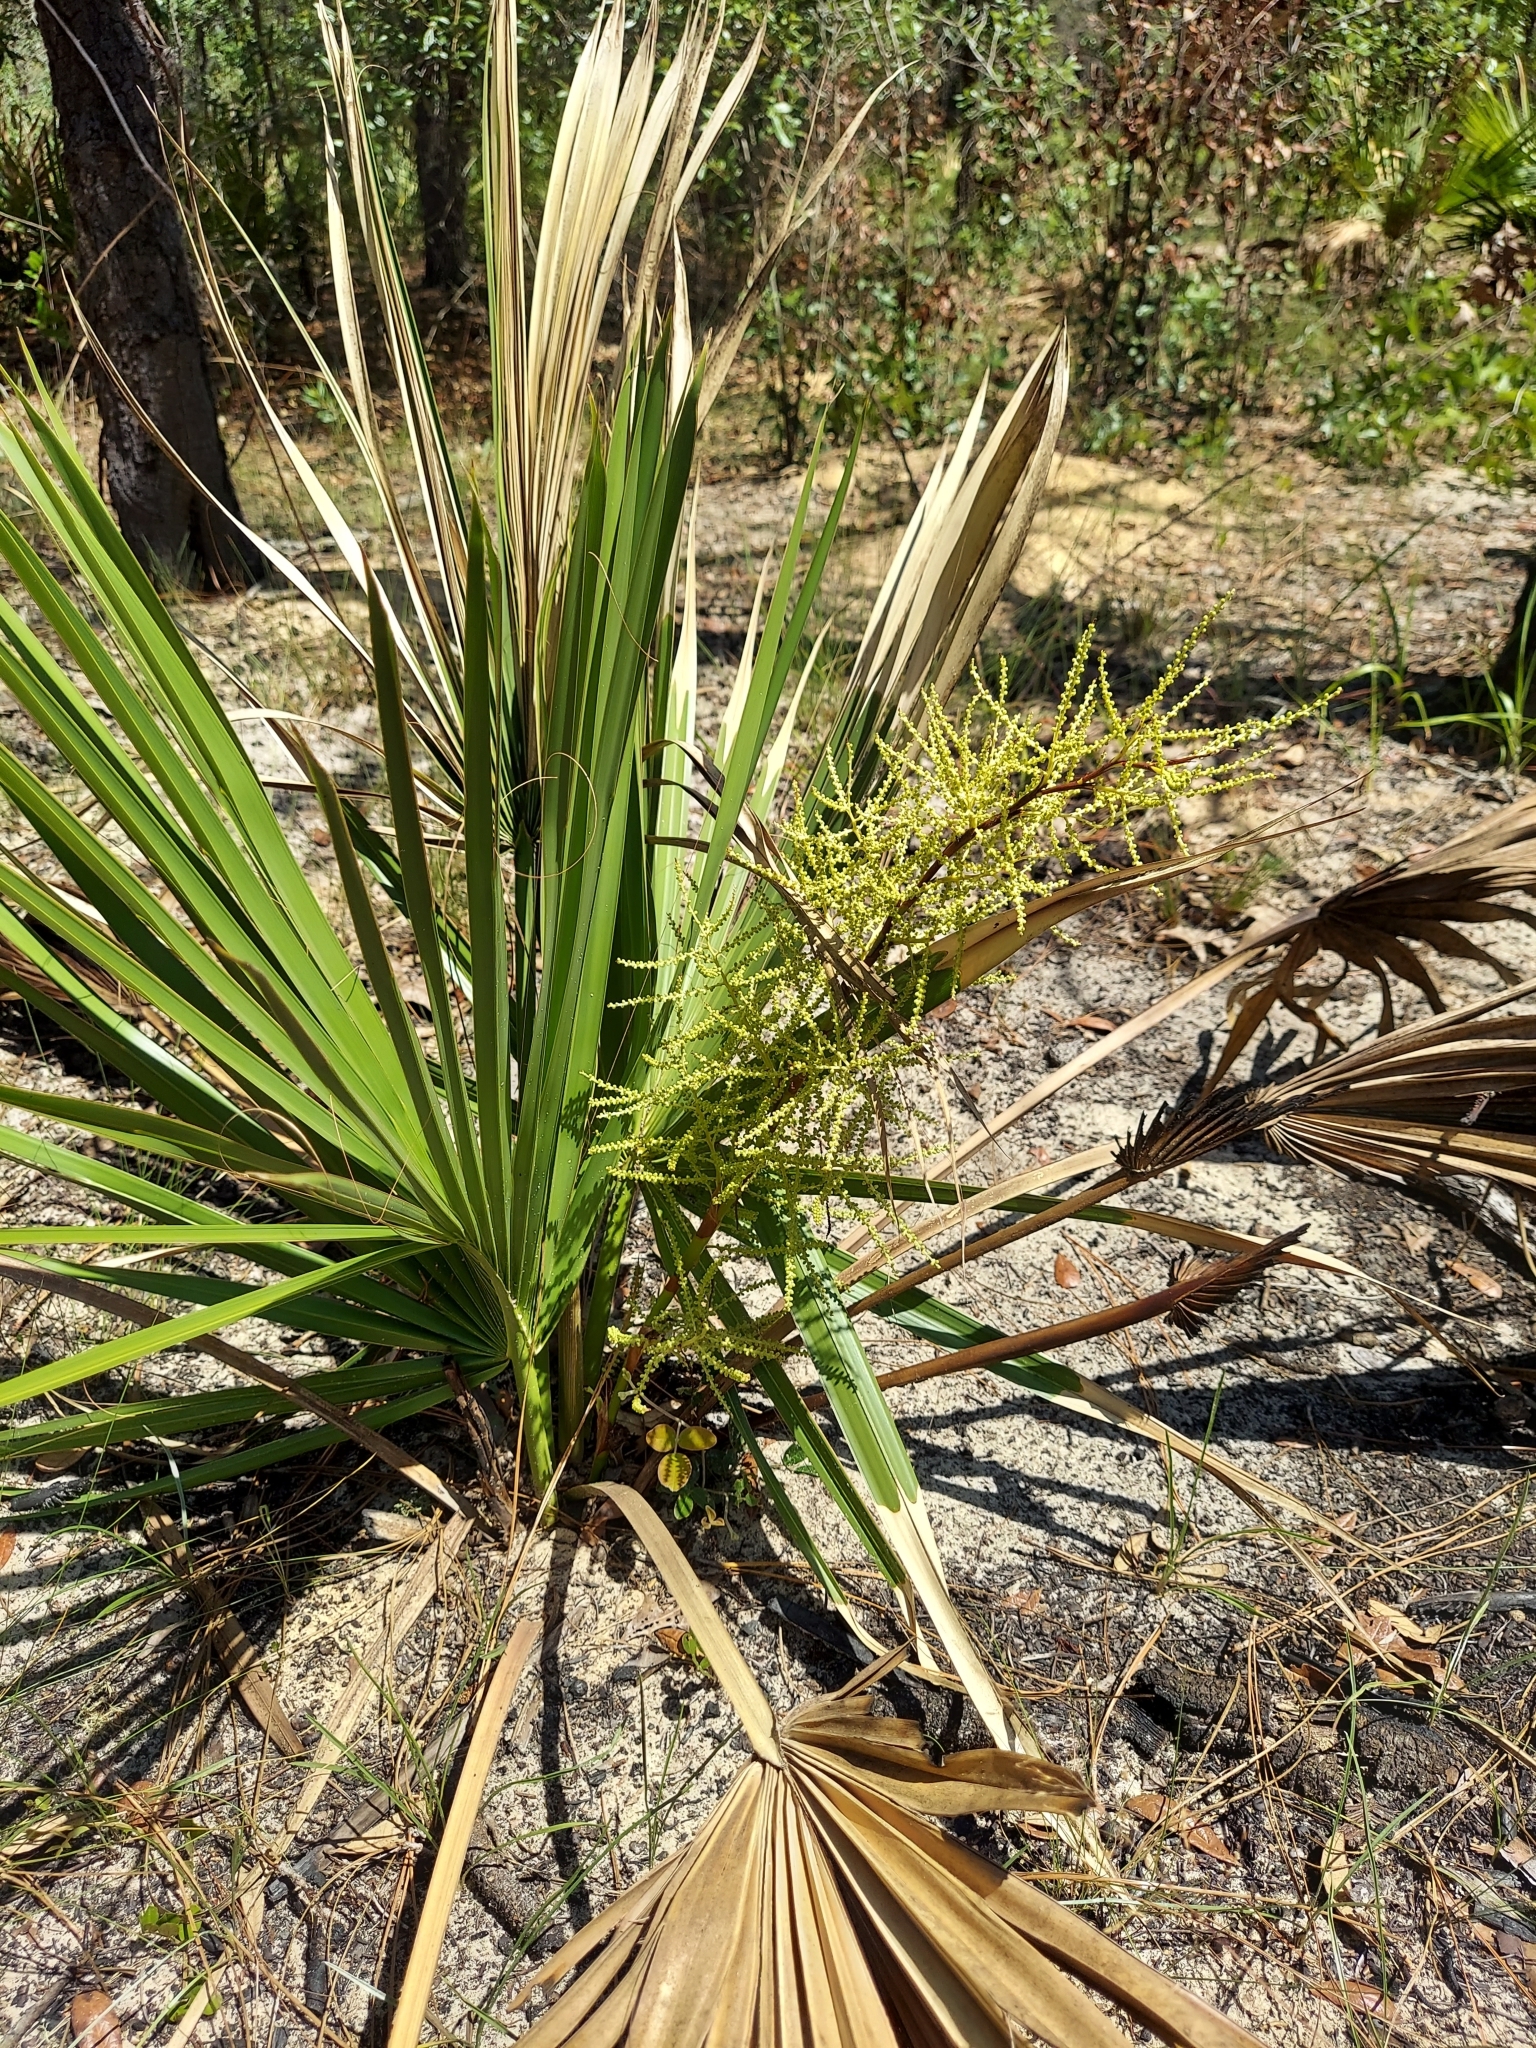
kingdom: Plantae
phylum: Tracheophyta
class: Liliopsida
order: Arecales
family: Arecaceae
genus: Sabal
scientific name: Sabal etonia
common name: Dwarf palmetto
